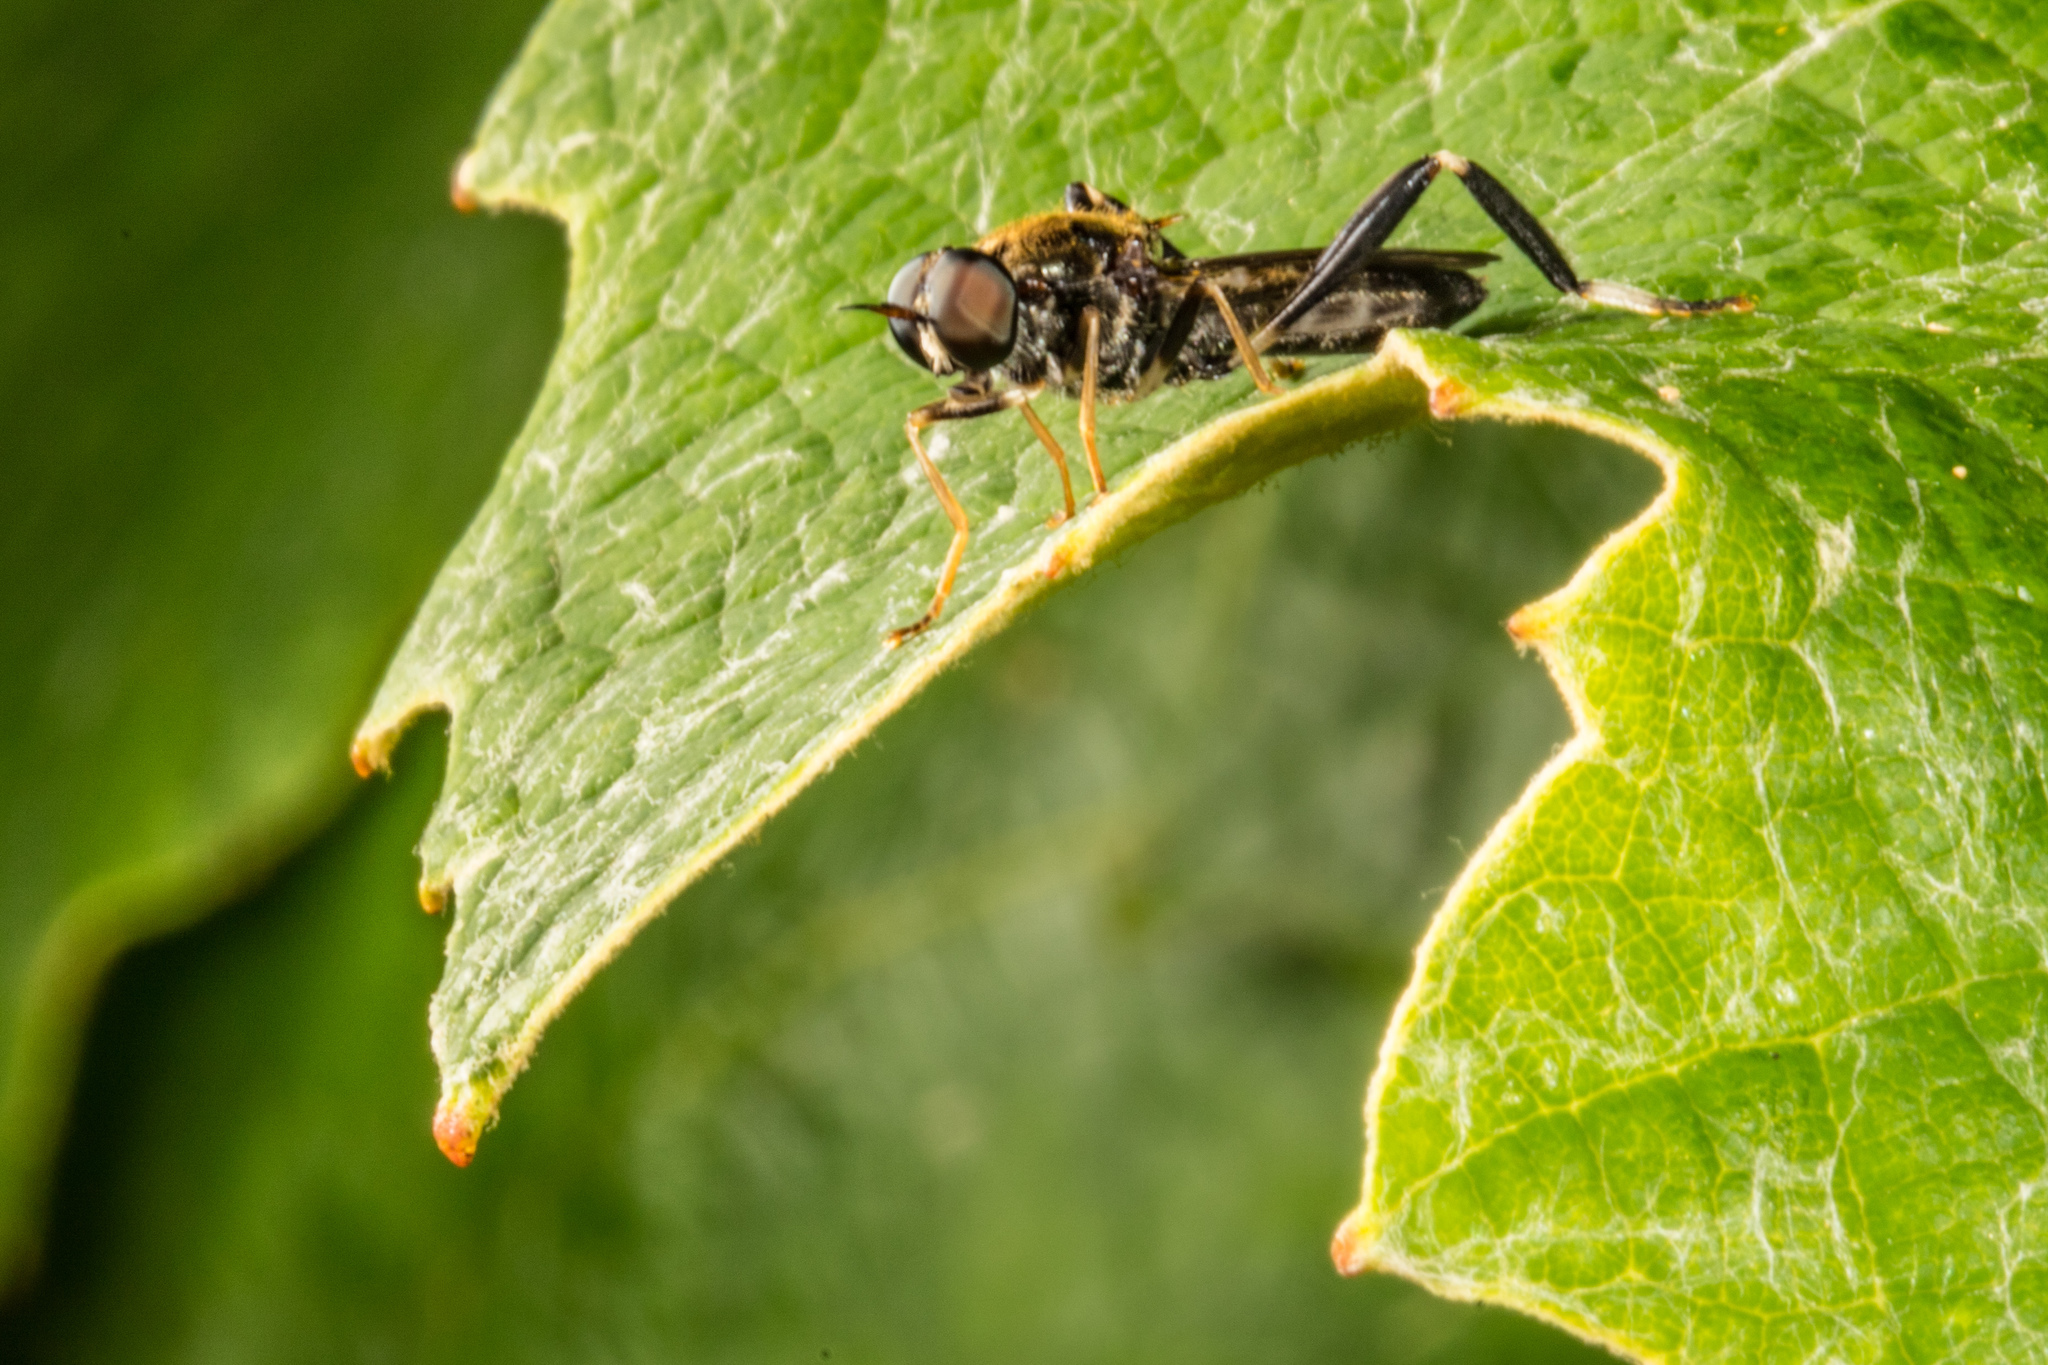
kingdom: Animalia
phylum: Arthropoda
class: Insecta
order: Diptera
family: Stratiomyidae
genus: Exaireta
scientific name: Exaireta spinigera
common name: Blue soldier fly
